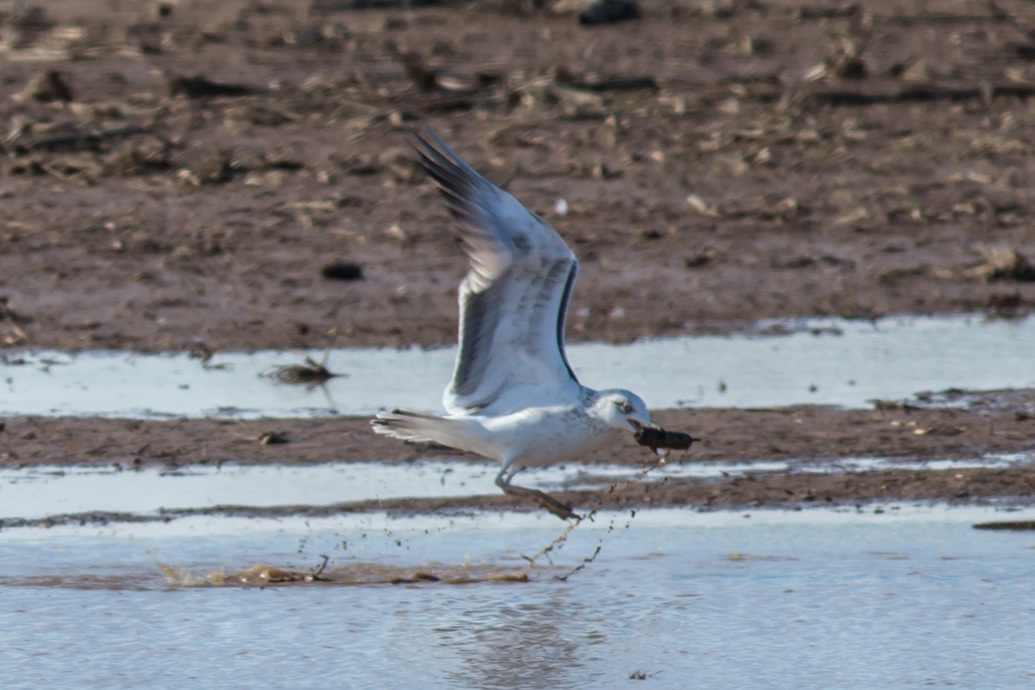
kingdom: Animalia
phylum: Chordata
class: Aves
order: Charadriiformes
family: Laridae
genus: Larus
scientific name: Larus fuscus
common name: Lesser black-backed gull
